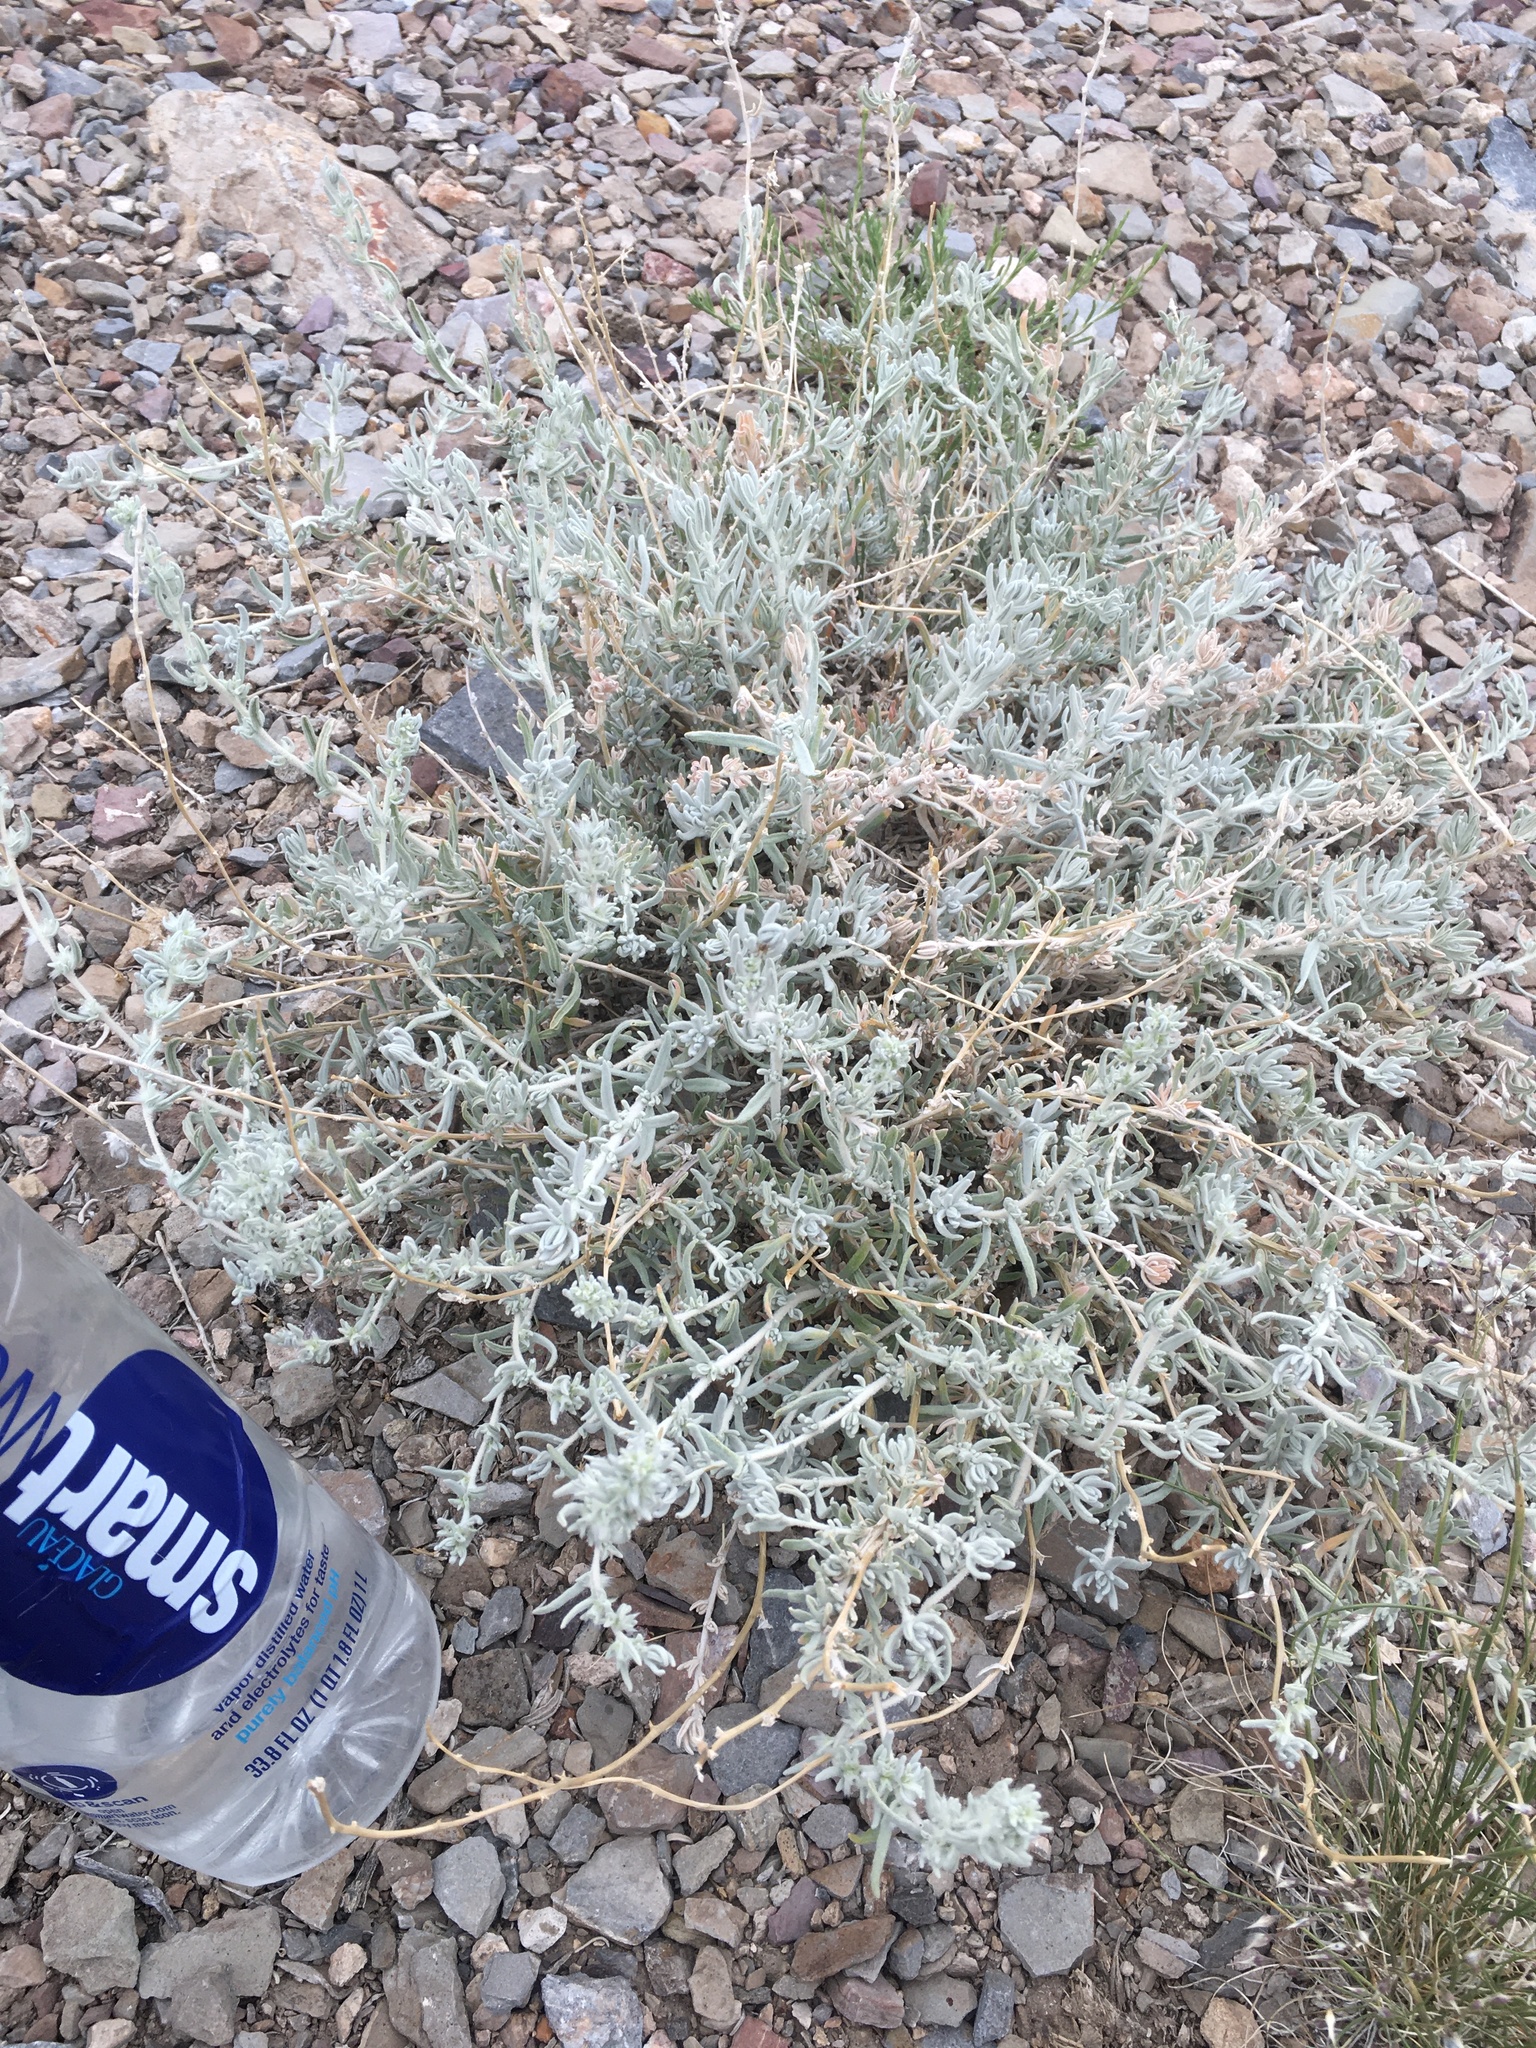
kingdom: Plantae
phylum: Tracheophyta
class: Magnoliopsida
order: Caryophyllales
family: Amaranthaceae
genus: Krascheninnikovia
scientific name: Krascheninnikovia lanata
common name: Winterfat
